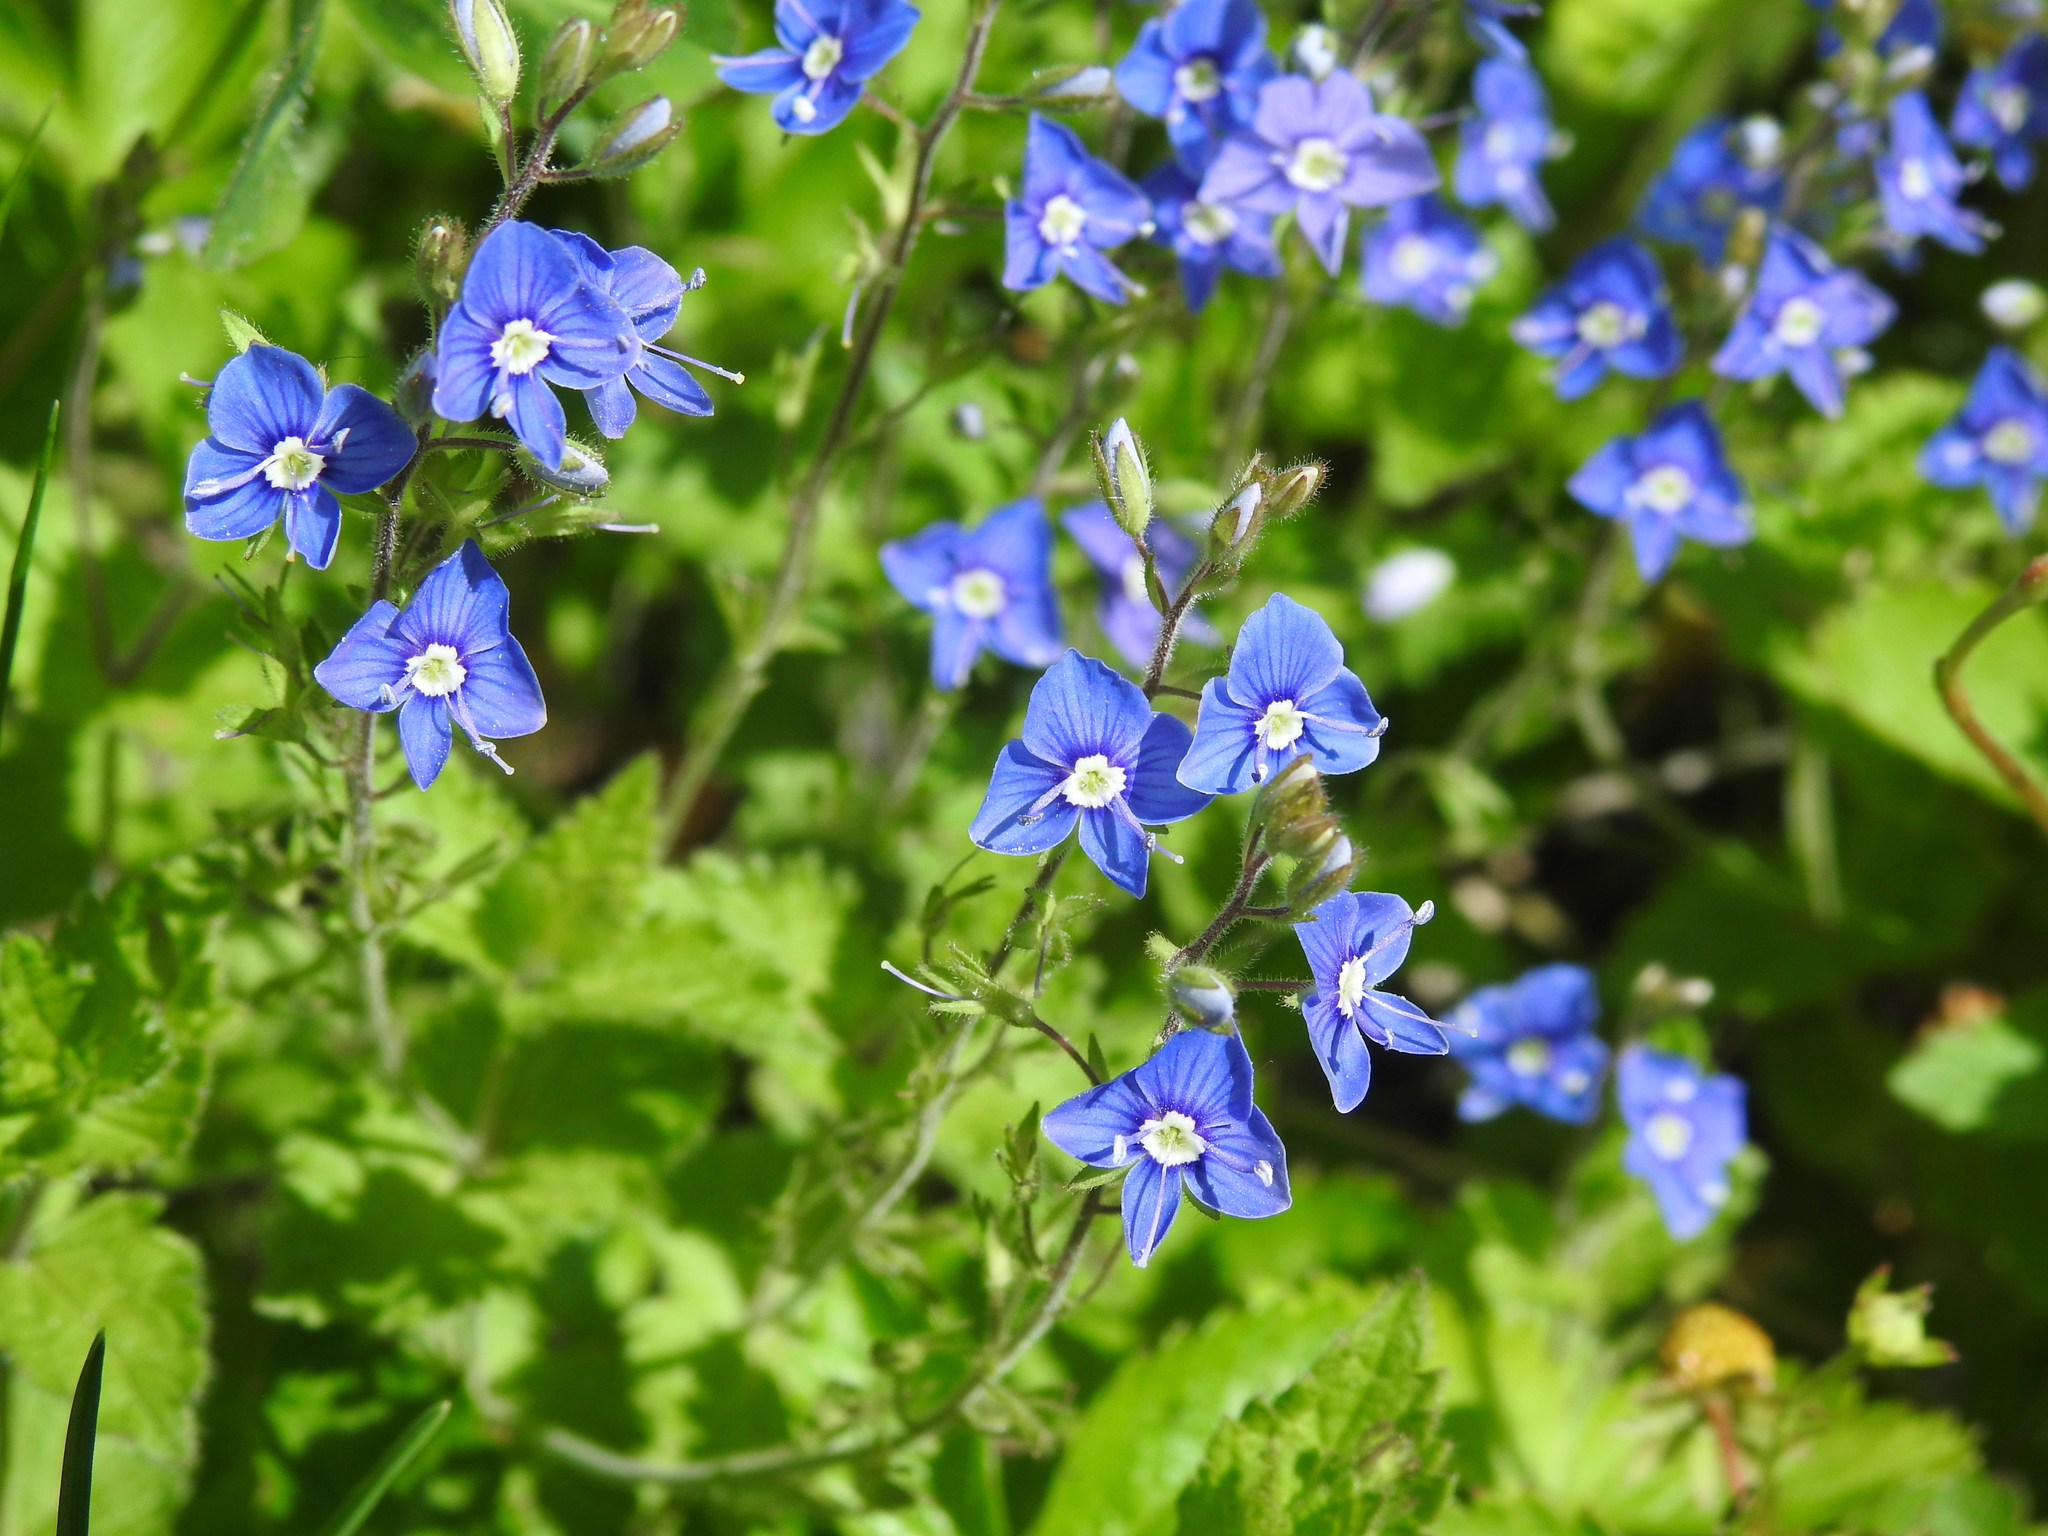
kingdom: Plantae
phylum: Tracheophyta
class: Magnoliopsida
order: Lamiales
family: Plantaginaceae
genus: Veronica
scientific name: Veronica chamaedrys
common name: Germander speedwell
